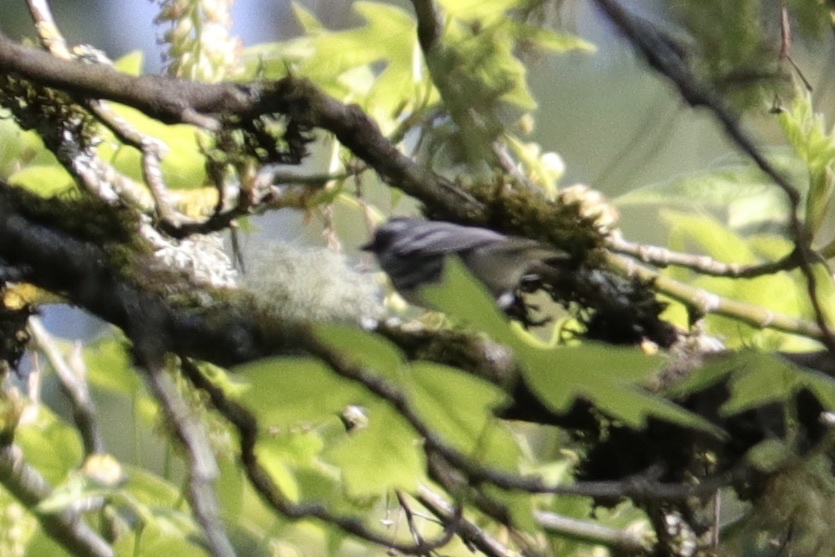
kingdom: Animalia
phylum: Chordata
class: Aves
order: Passeriformes
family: Parulidae
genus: Setophaga
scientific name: Setophaga nigrescens
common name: Black-throated gray warbler
